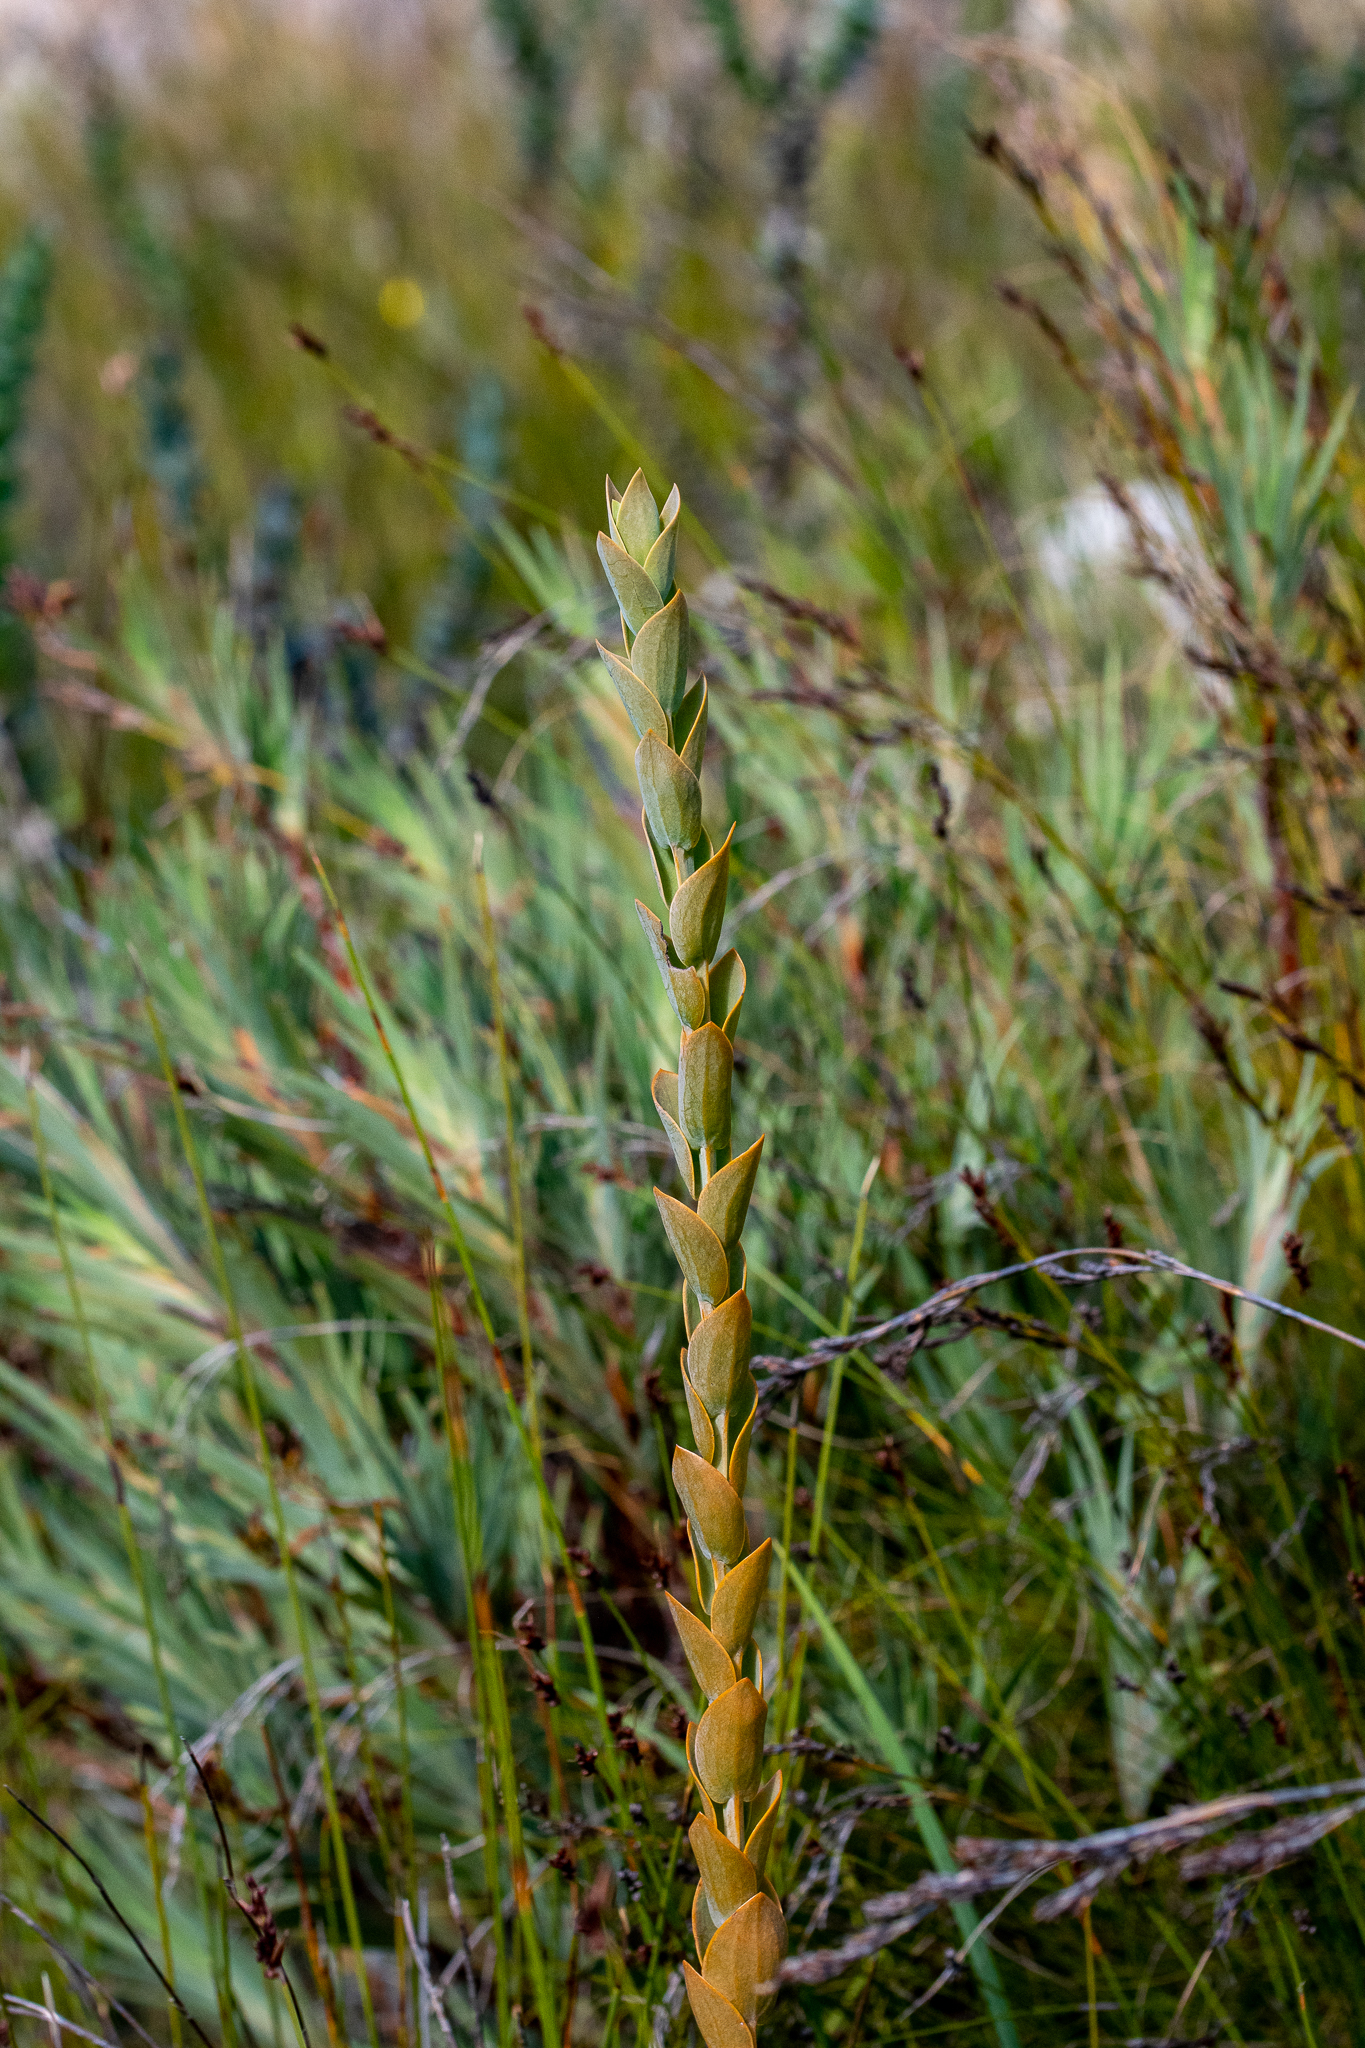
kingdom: Plantae
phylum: Tracheophyta
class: Magnoliopsida
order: Santalales
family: Thesiaceae
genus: Thesium
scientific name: Thesium euphorbioides
